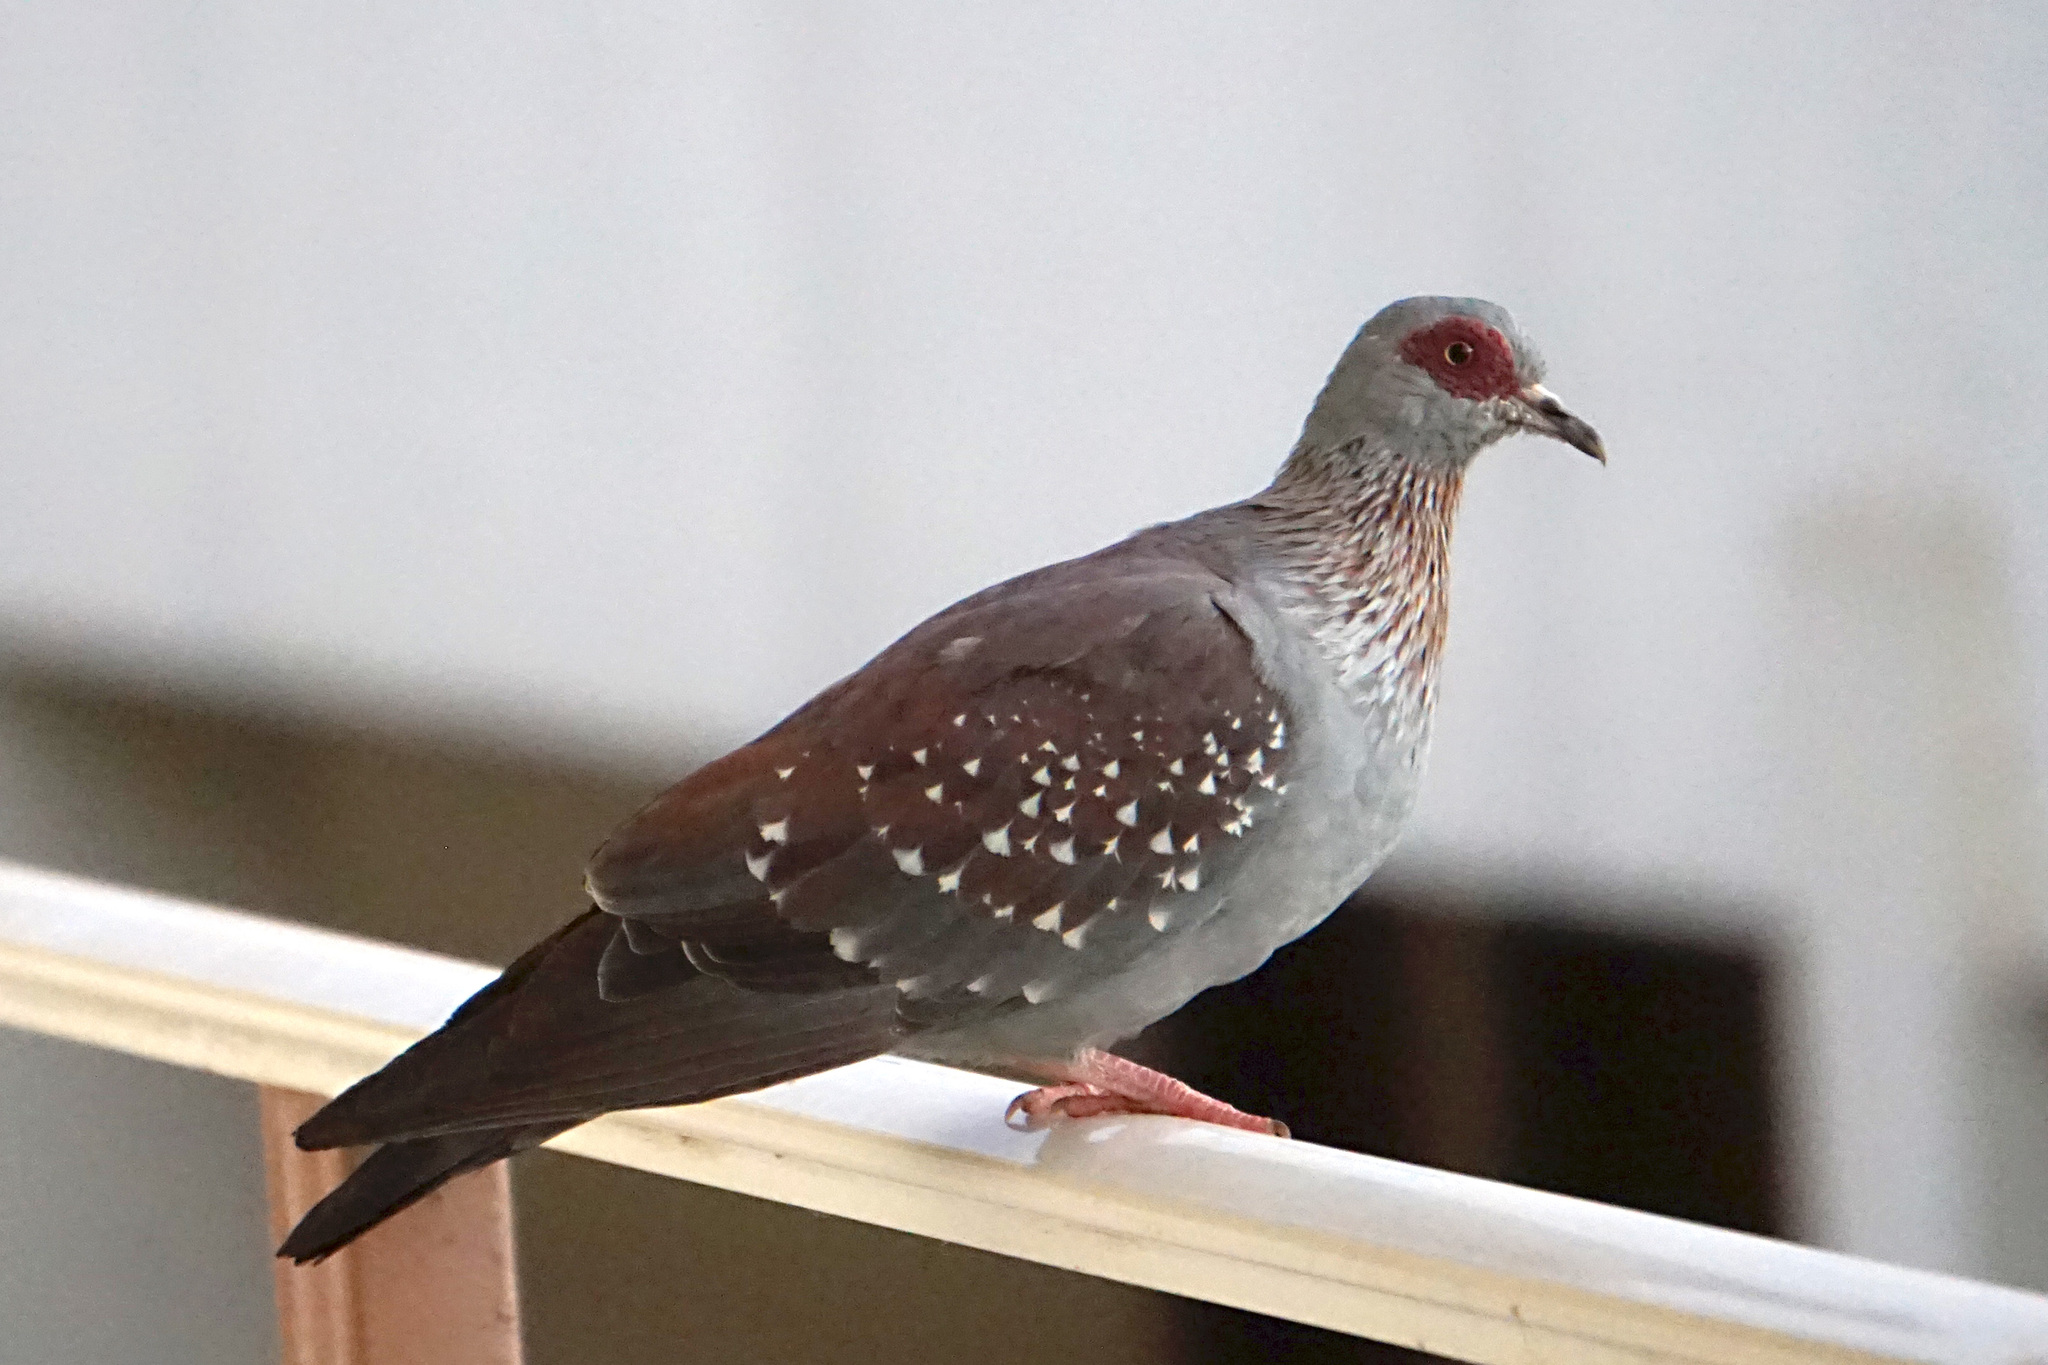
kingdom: Animalia
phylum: Chordata
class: Aves
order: Columbiformes
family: Columbidae
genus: Columba
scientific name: Columba guinea
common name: Speckled pigeon
